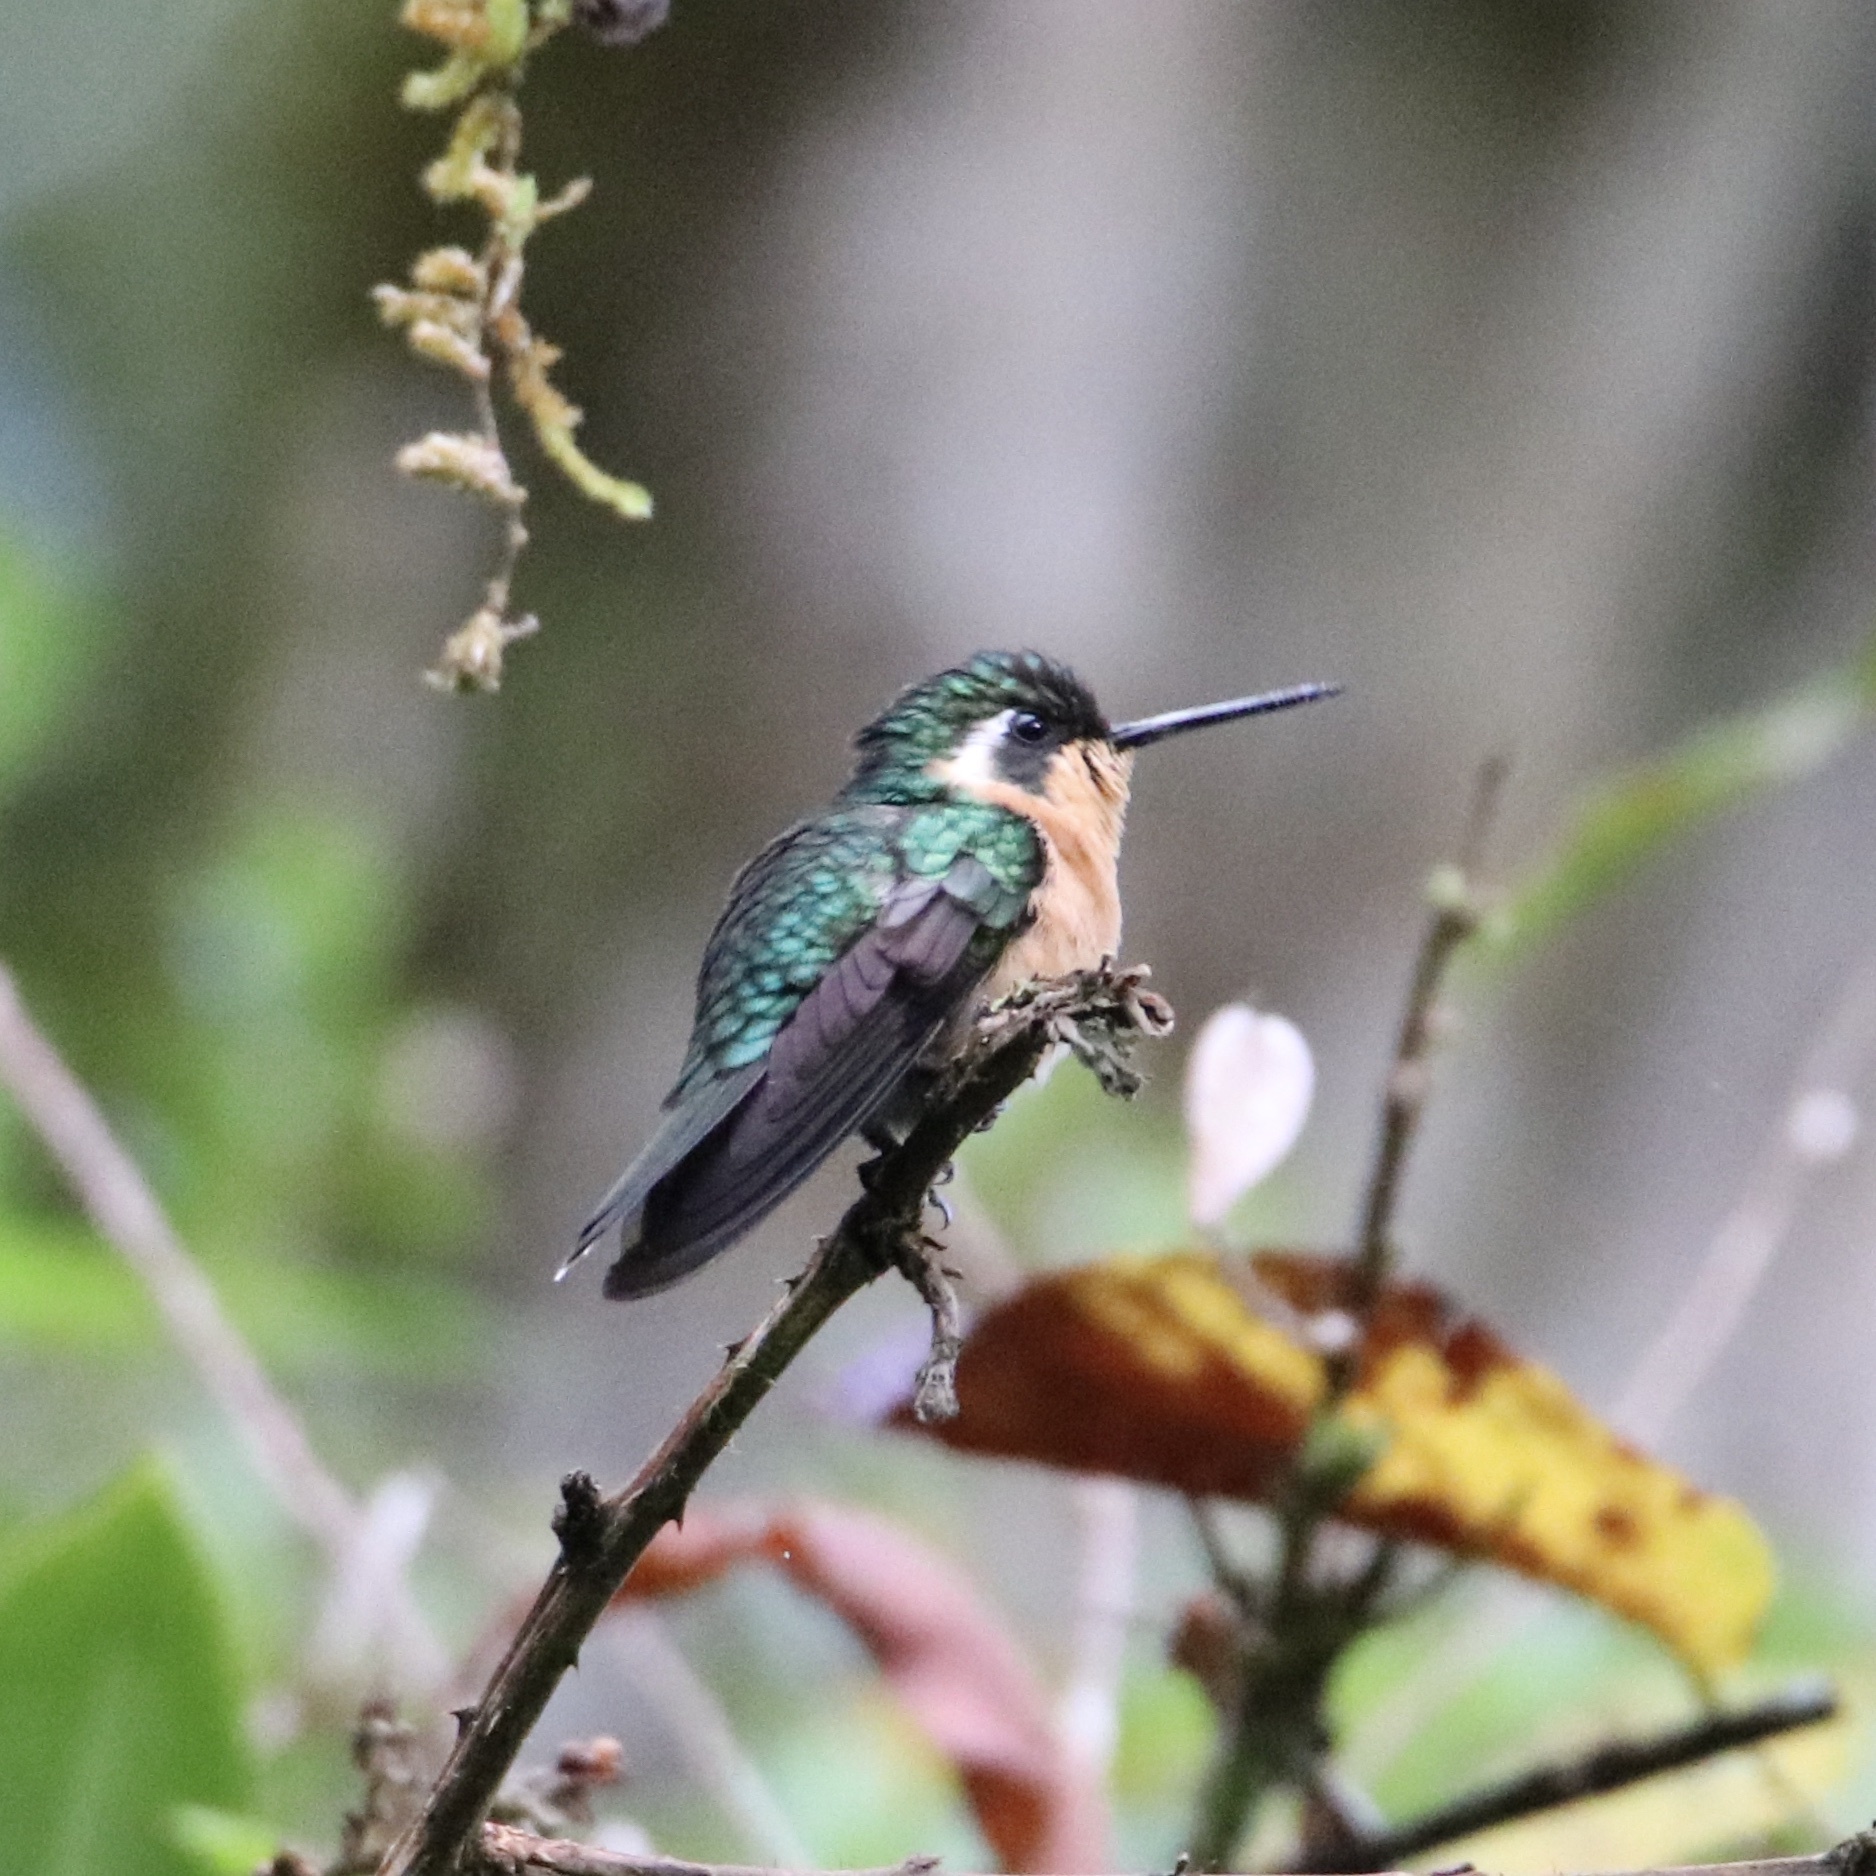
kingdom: Animalia
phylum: Chordata
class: Aves
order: Apodiformes
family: Trochilidae
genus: Lampornis
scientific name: Lampornis castaneoventris
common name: White-throated mountain-gem
